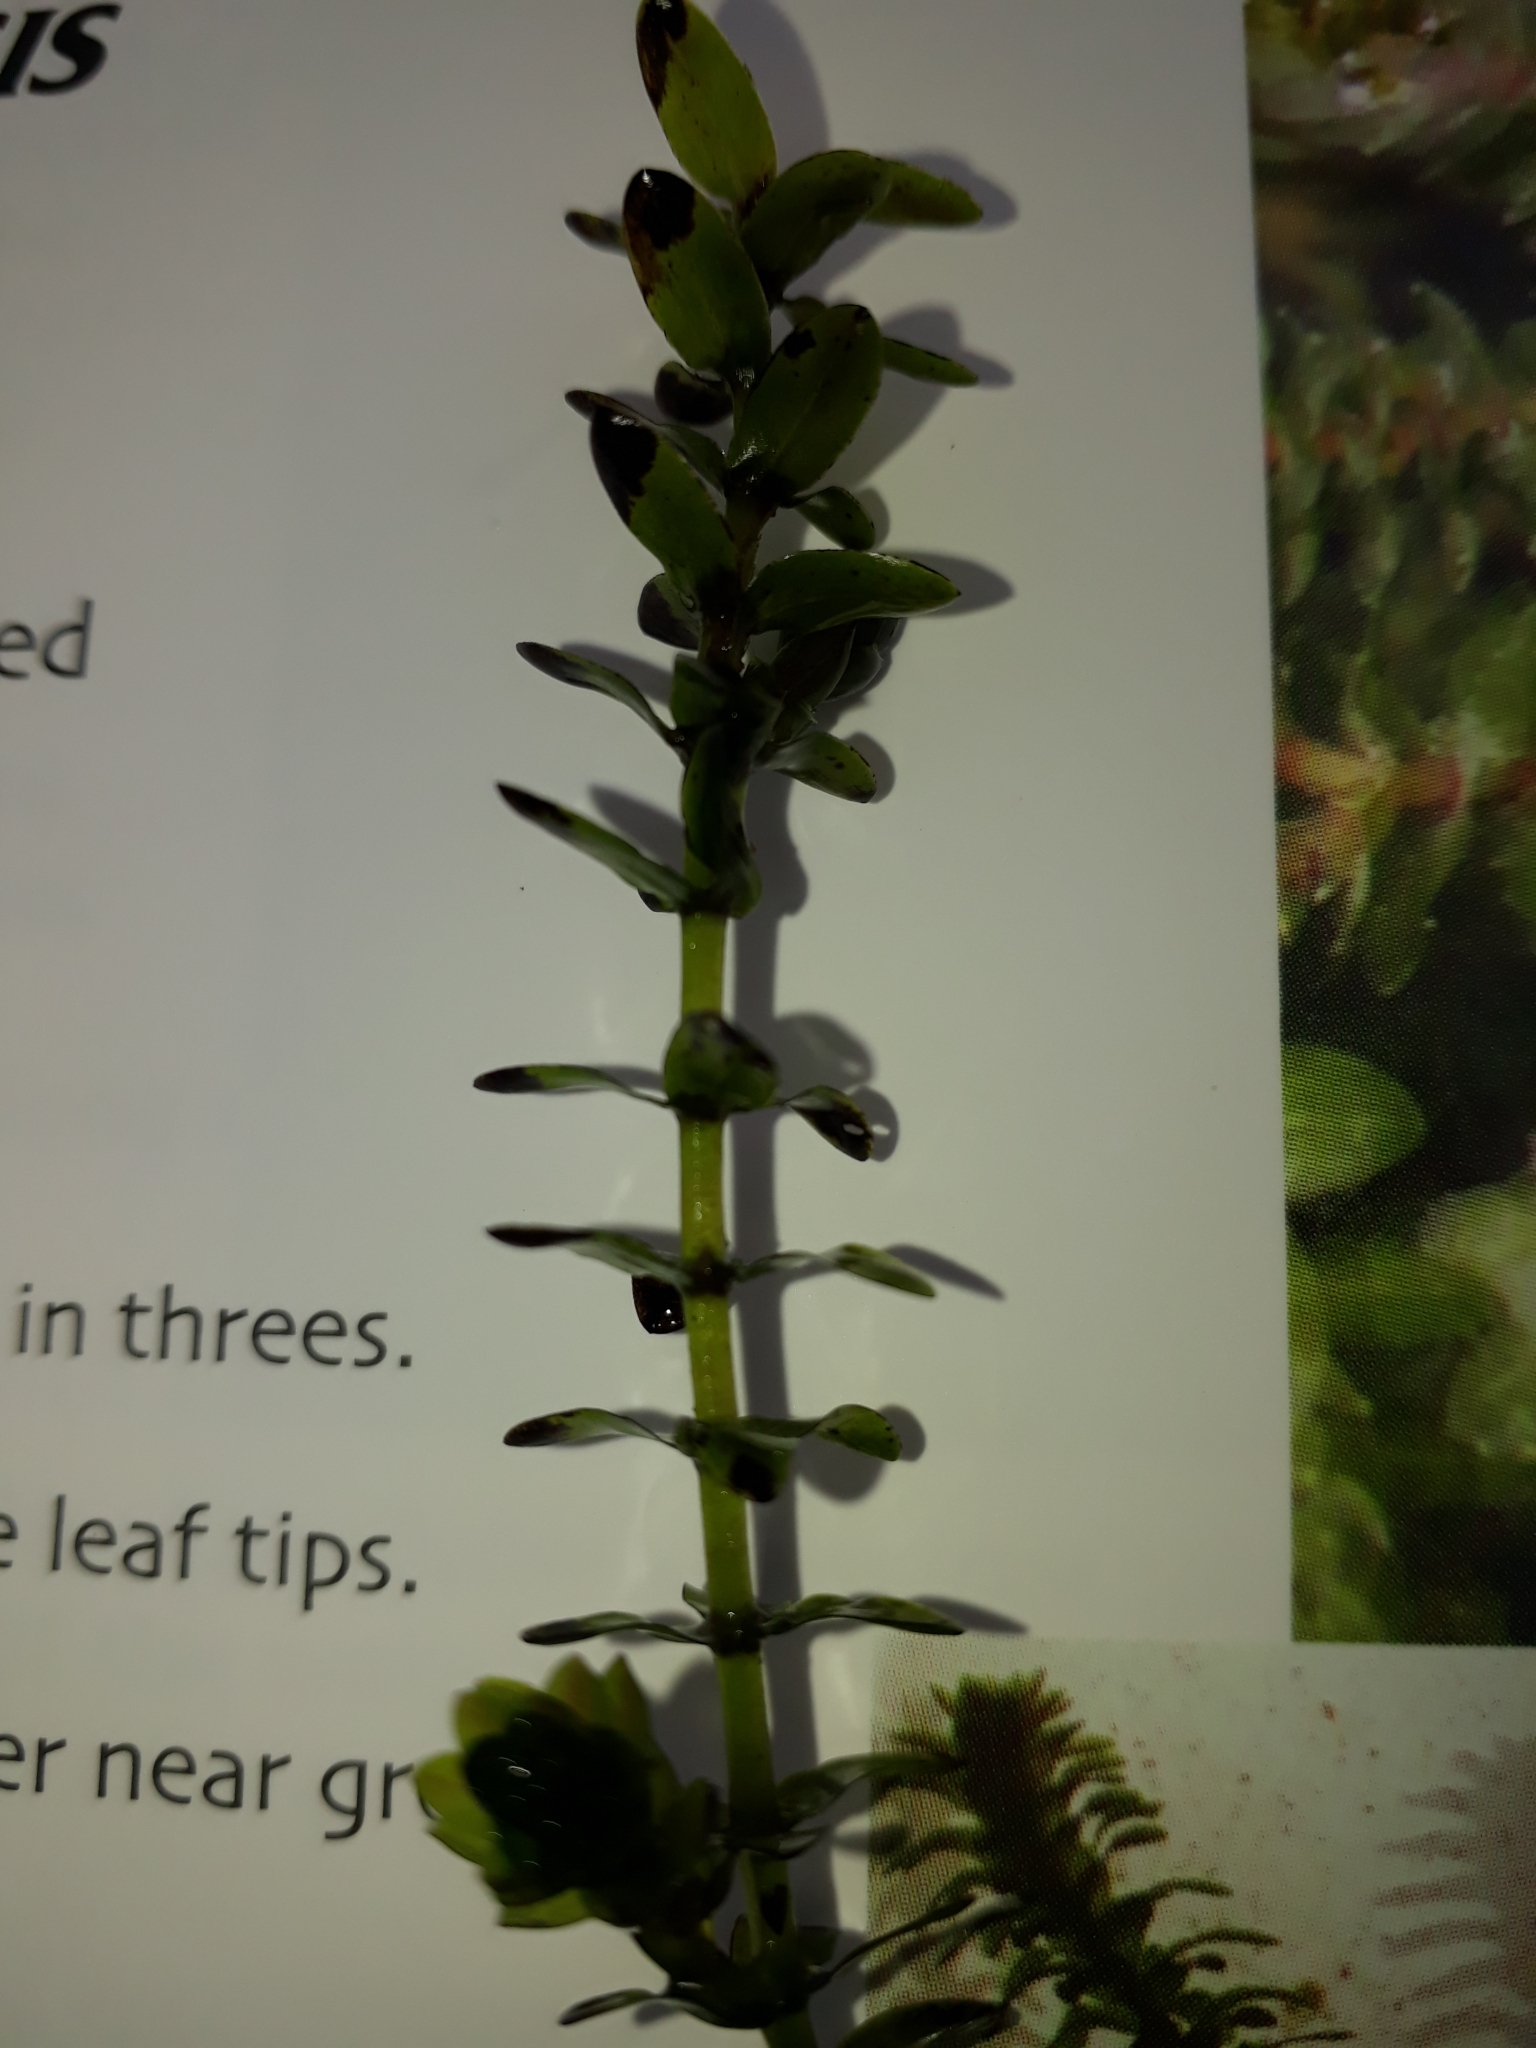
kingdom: Plantae
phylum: Tracheophyta
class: Liliopsida
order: Alismatales
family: Hydrocharitaceae
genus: Elodea
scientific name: Elodea canadensis
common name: Canadian waterweed
